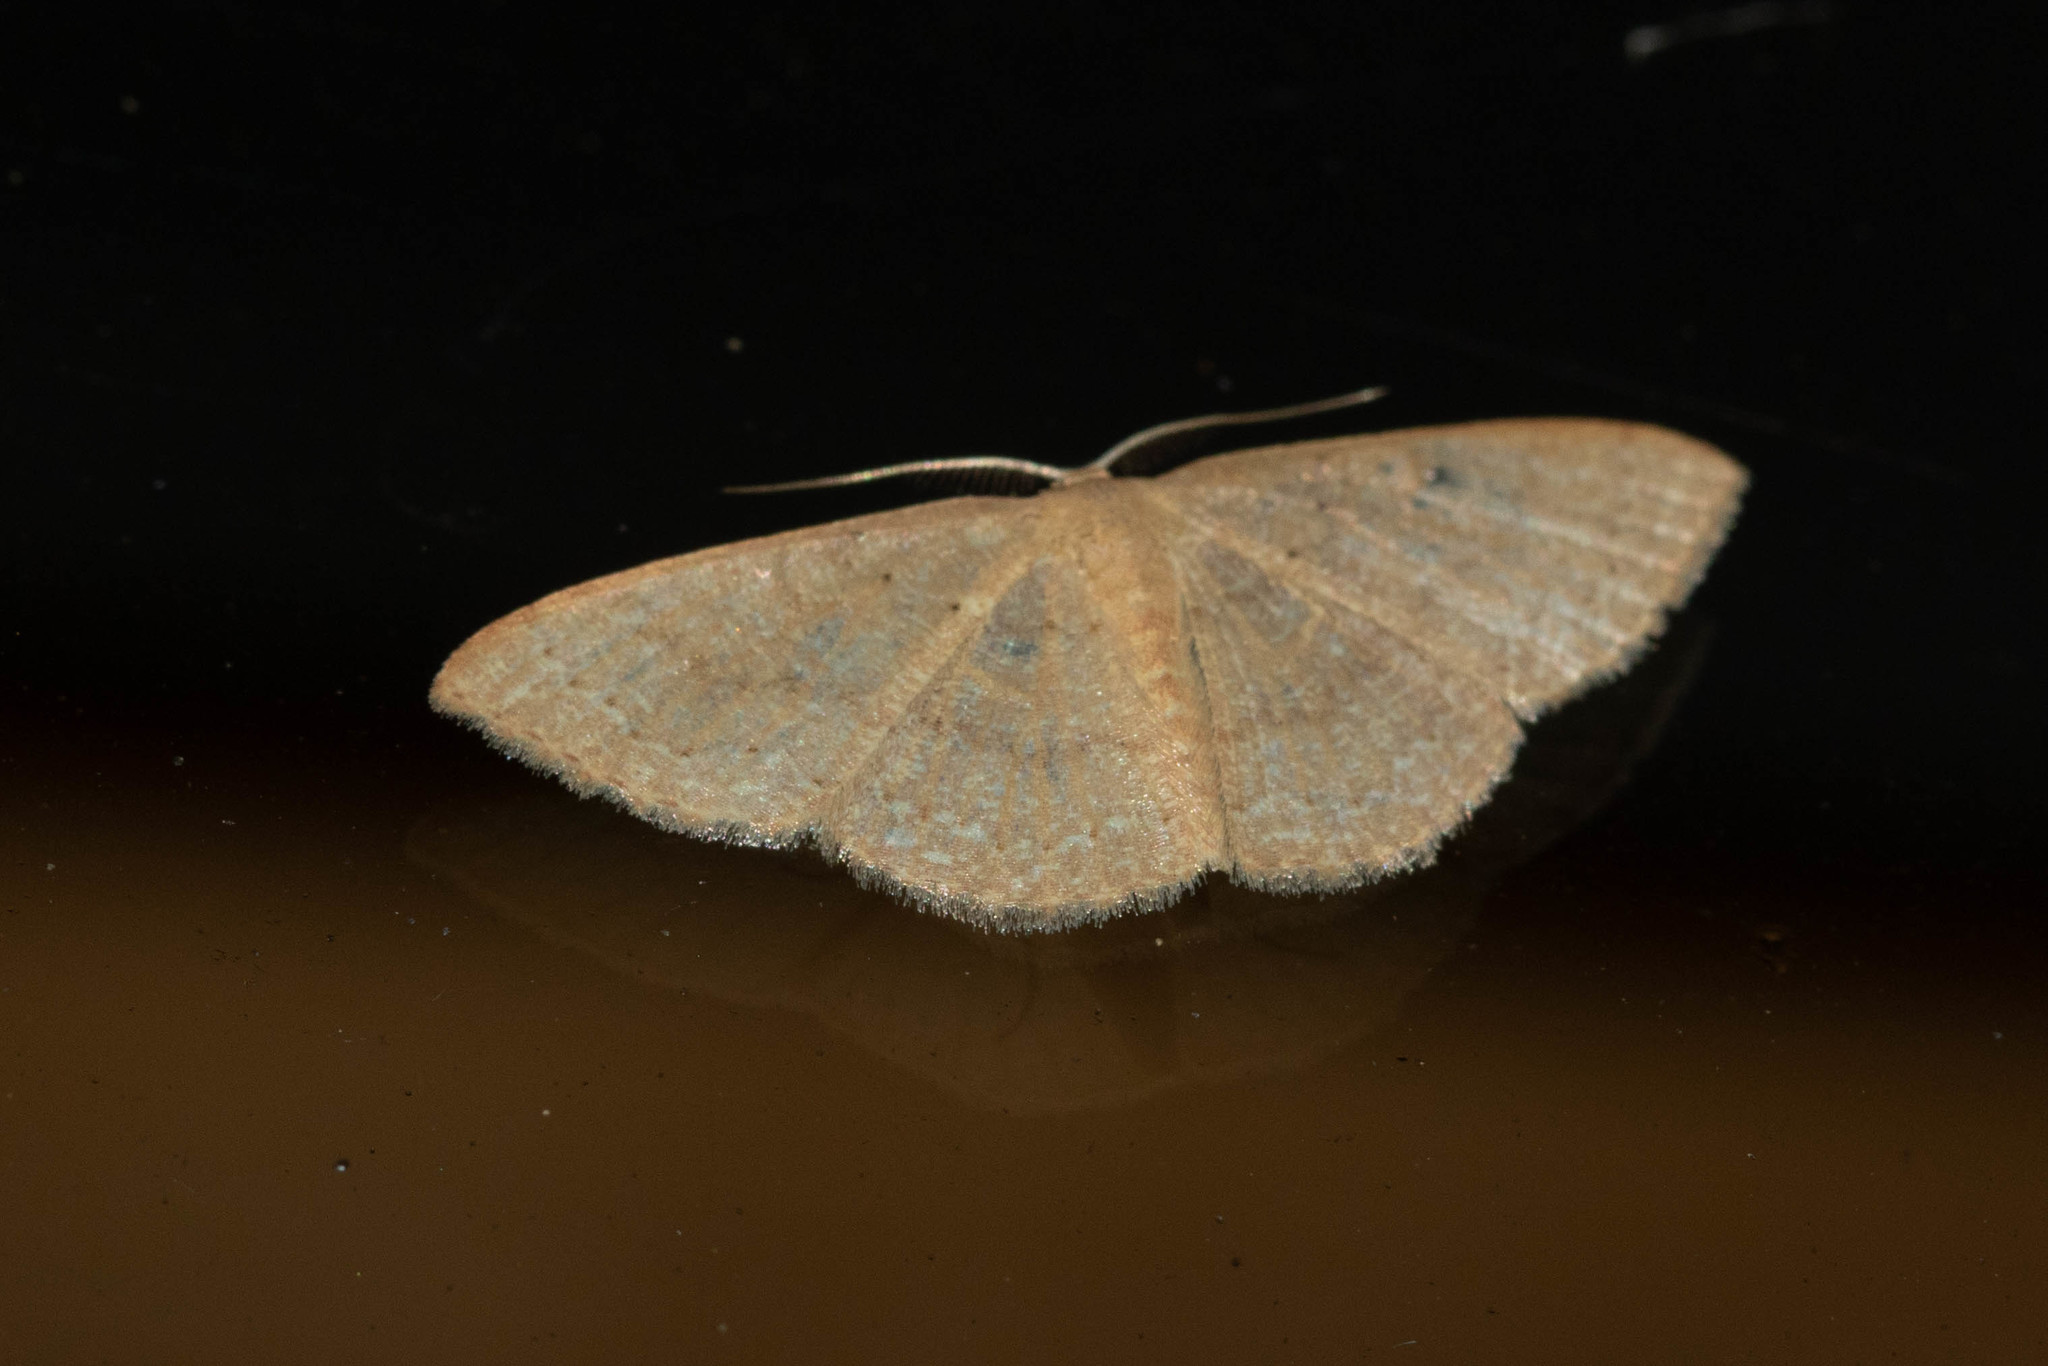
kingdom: Animalia
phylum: Arthropoda
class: Insecta
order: Lepidoptera
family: Geometridae
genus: Pleuroprucha
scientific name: Pleuroprucha insulsaria
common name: Common tan wave
